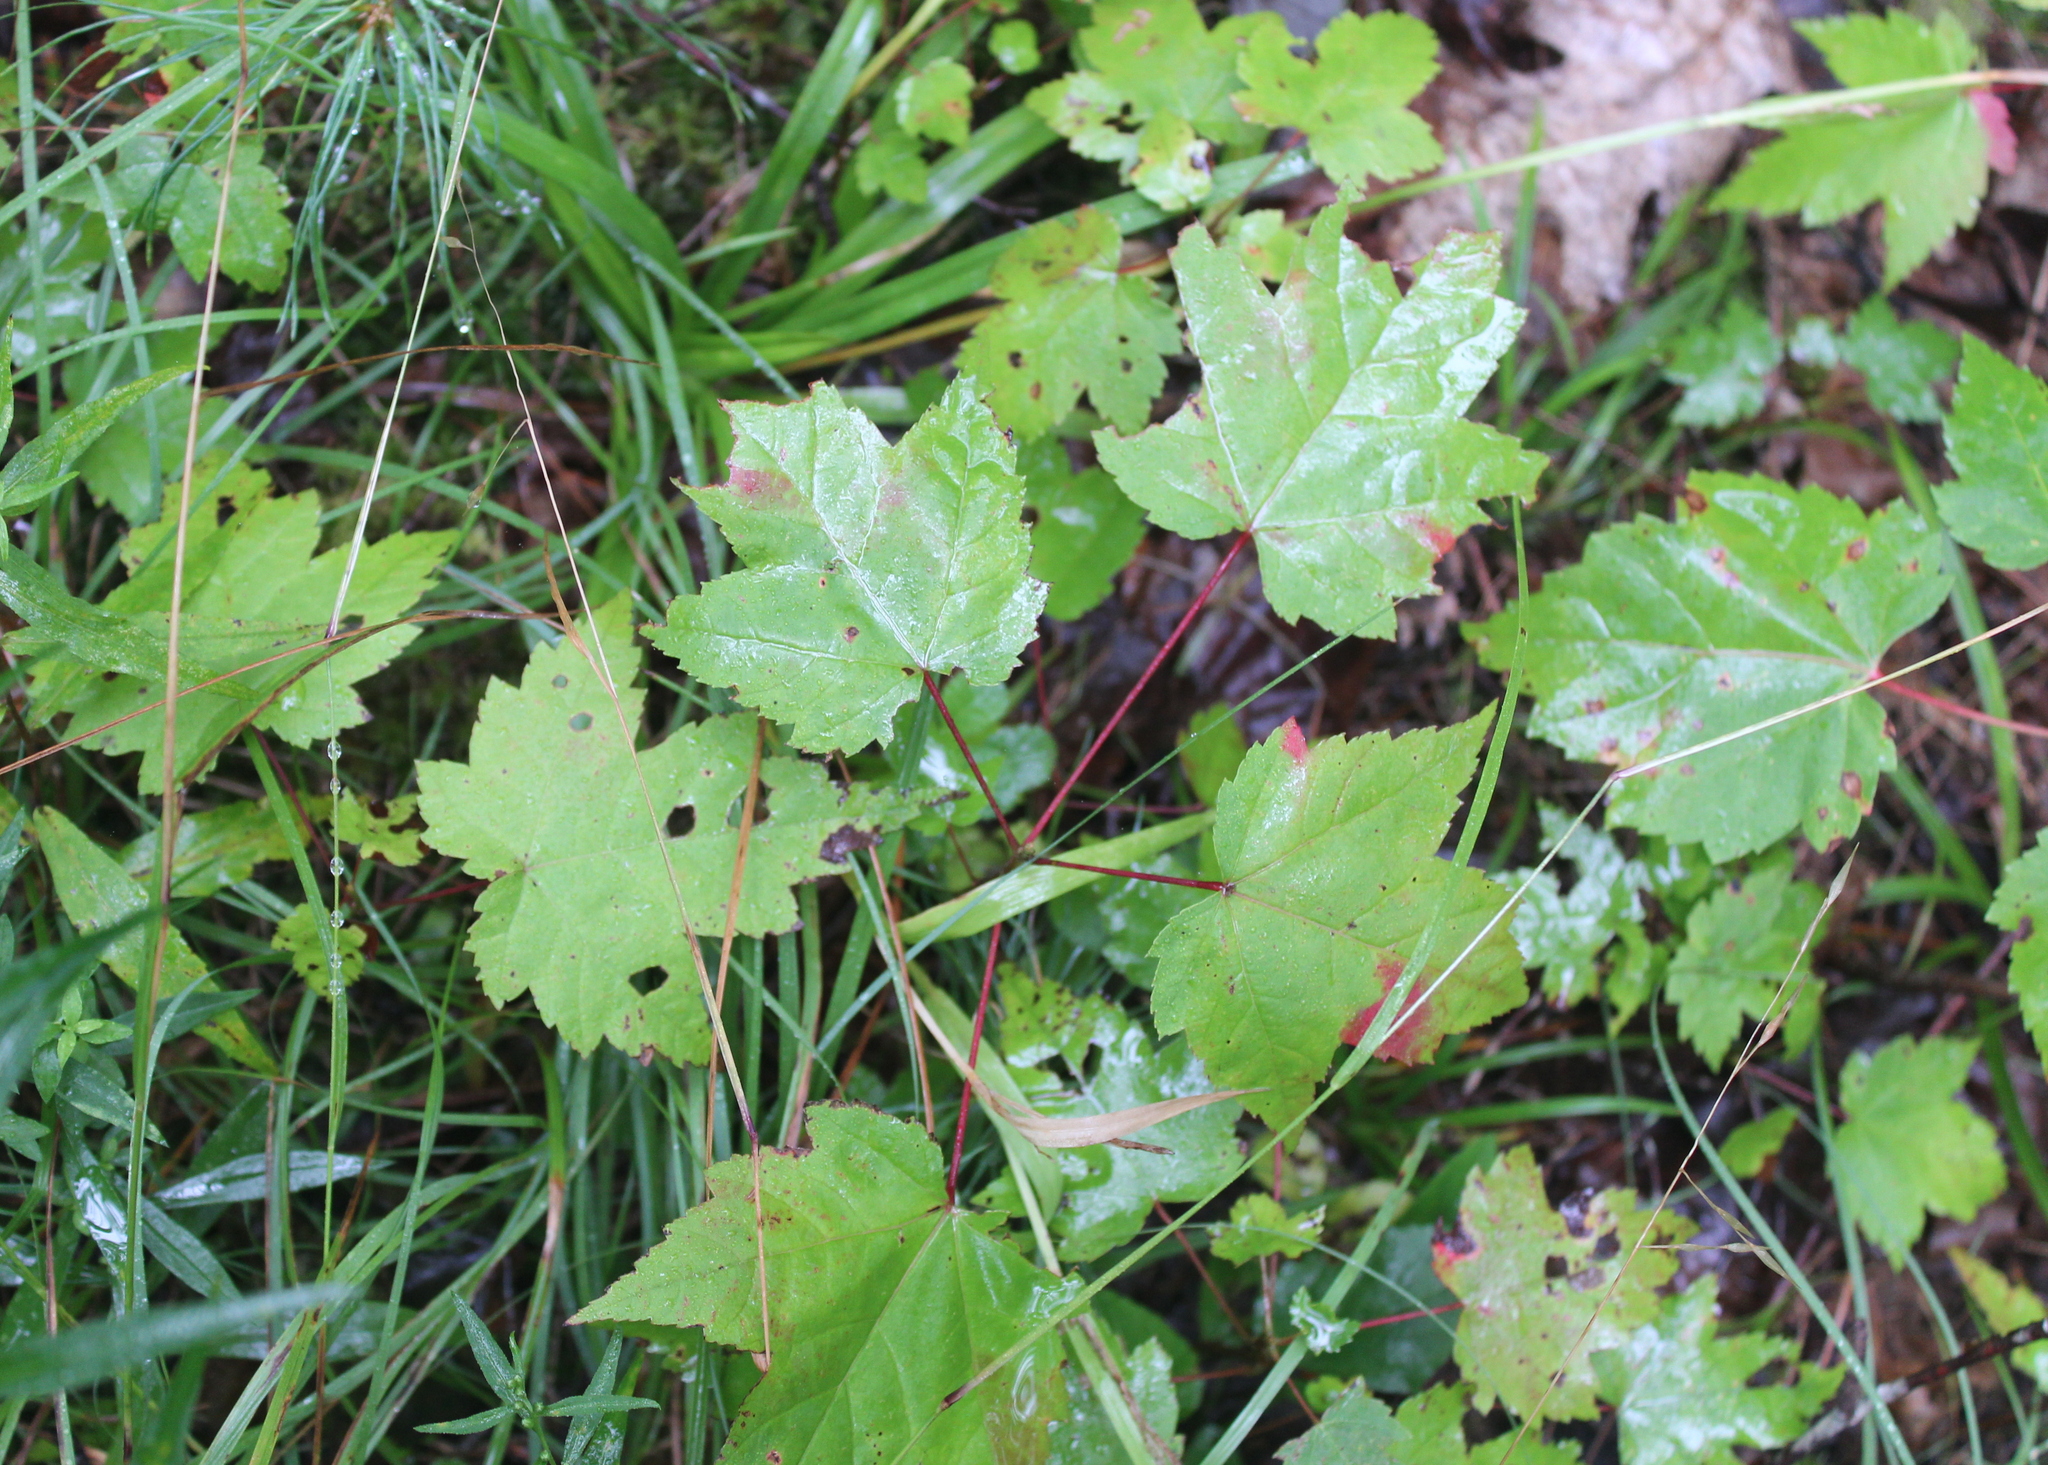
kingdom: Plantae
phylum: Tracheophyta
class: Magnoliopsida
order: Sapindales
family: Sapindaceae
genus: Acer
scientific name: Acer rubrum
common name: Red maple
